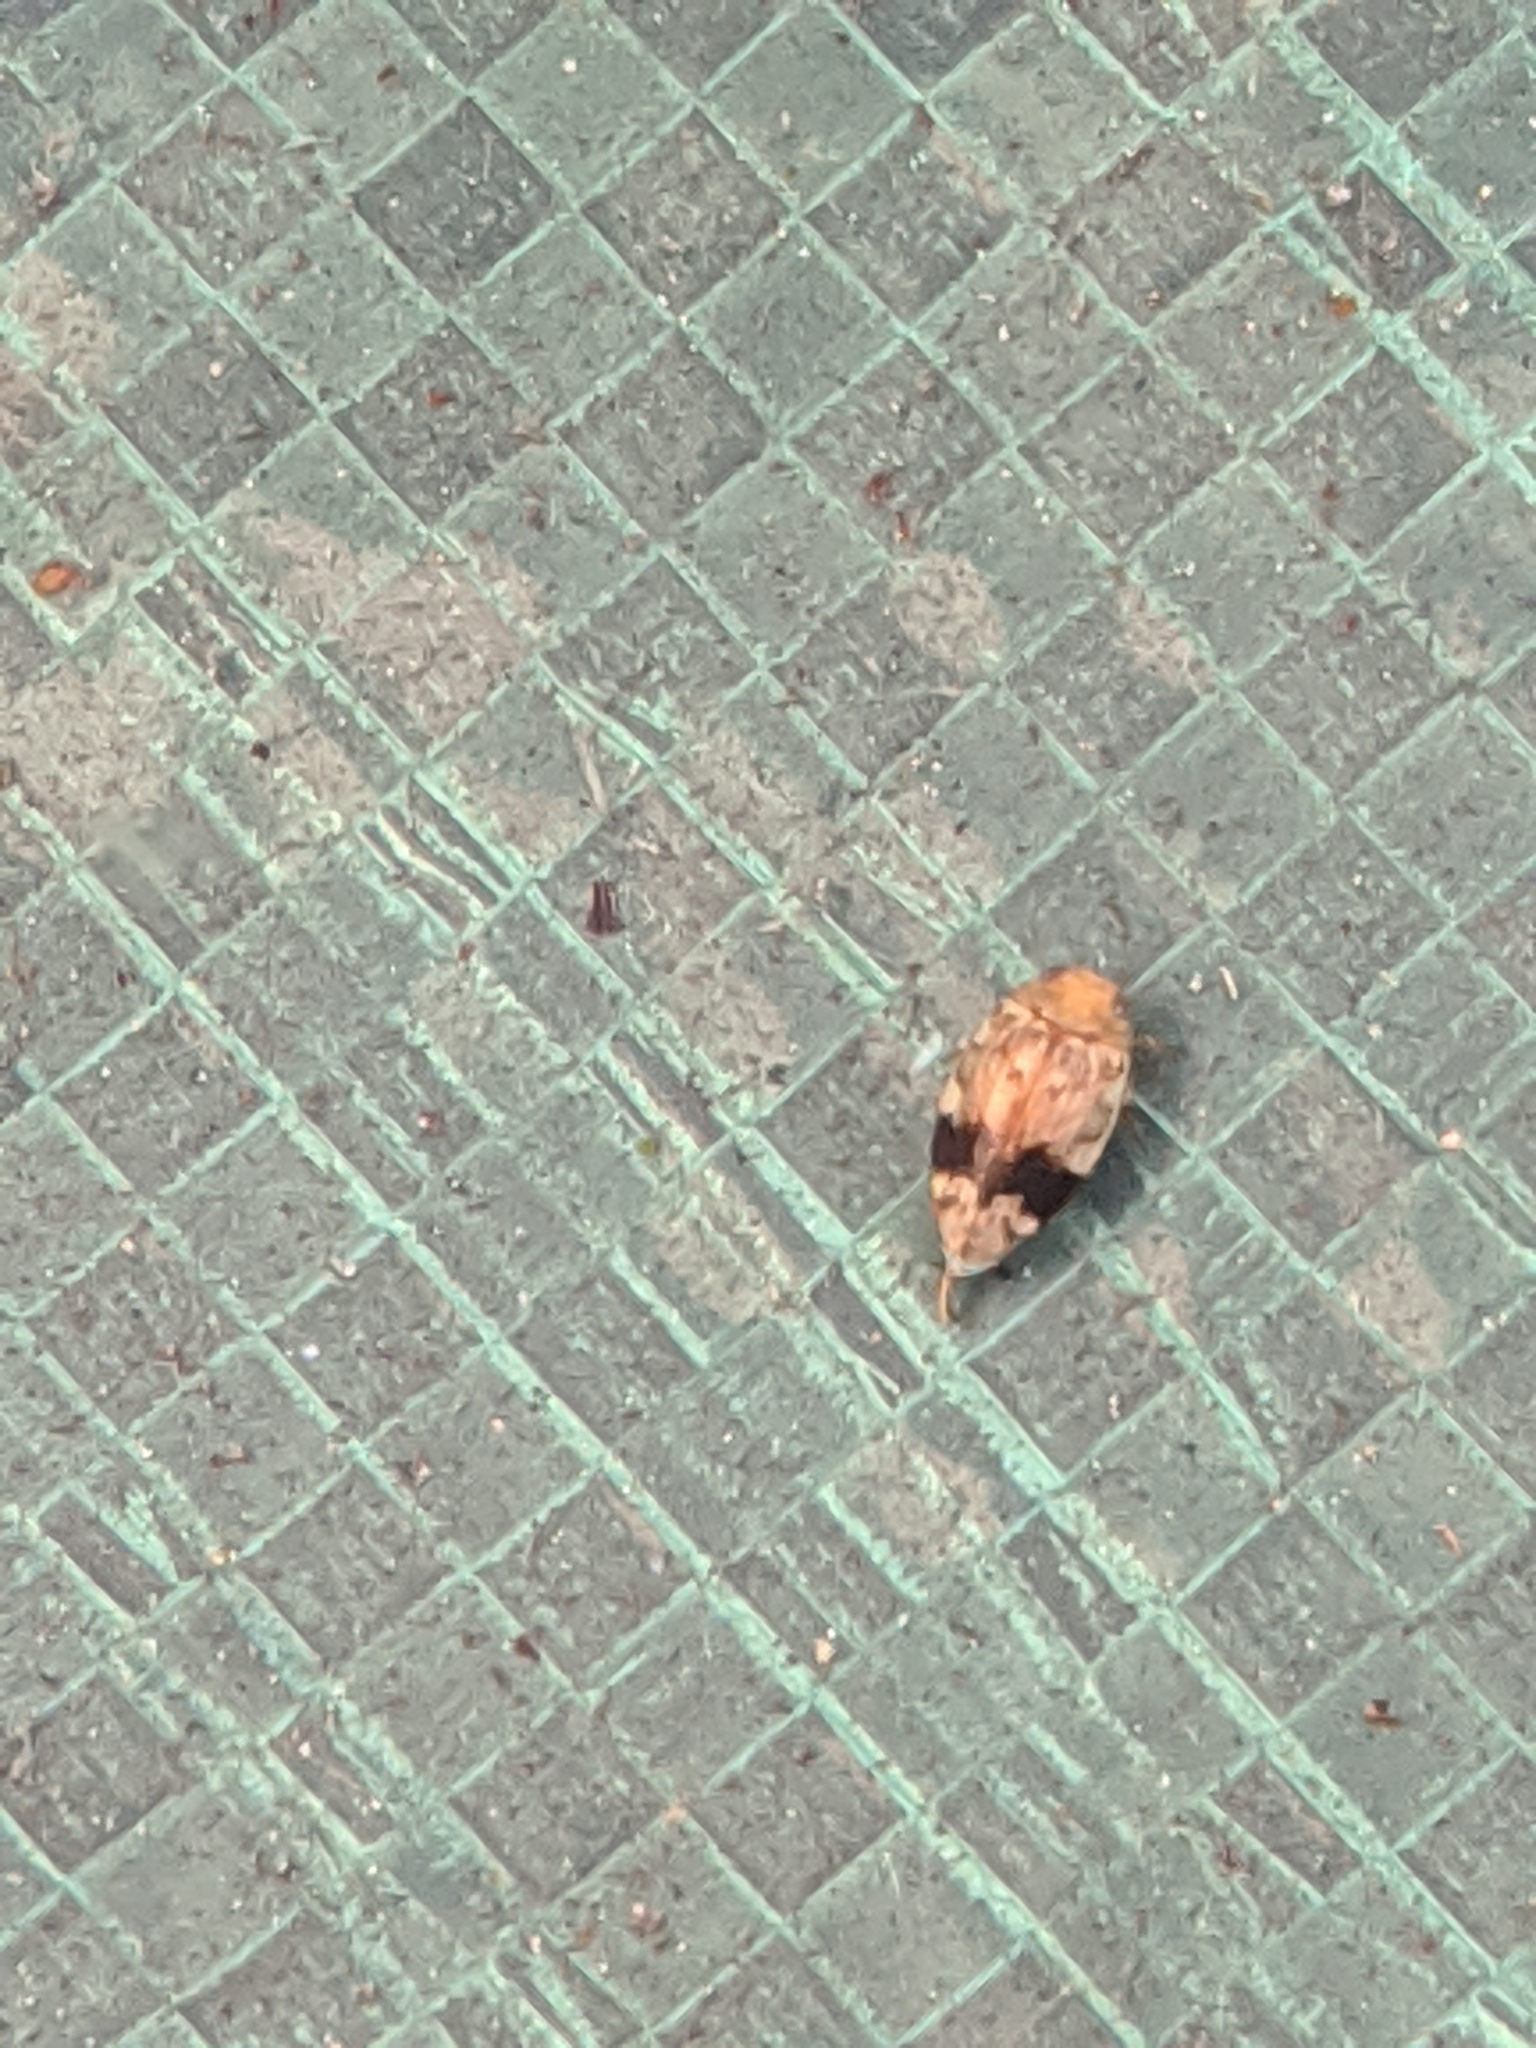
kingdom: Animalia
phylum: Arthropoda
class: Insecta
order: Coleoptera
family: Dytiscidae
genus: Laccophilus
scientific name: Laccophilus fasciatus
